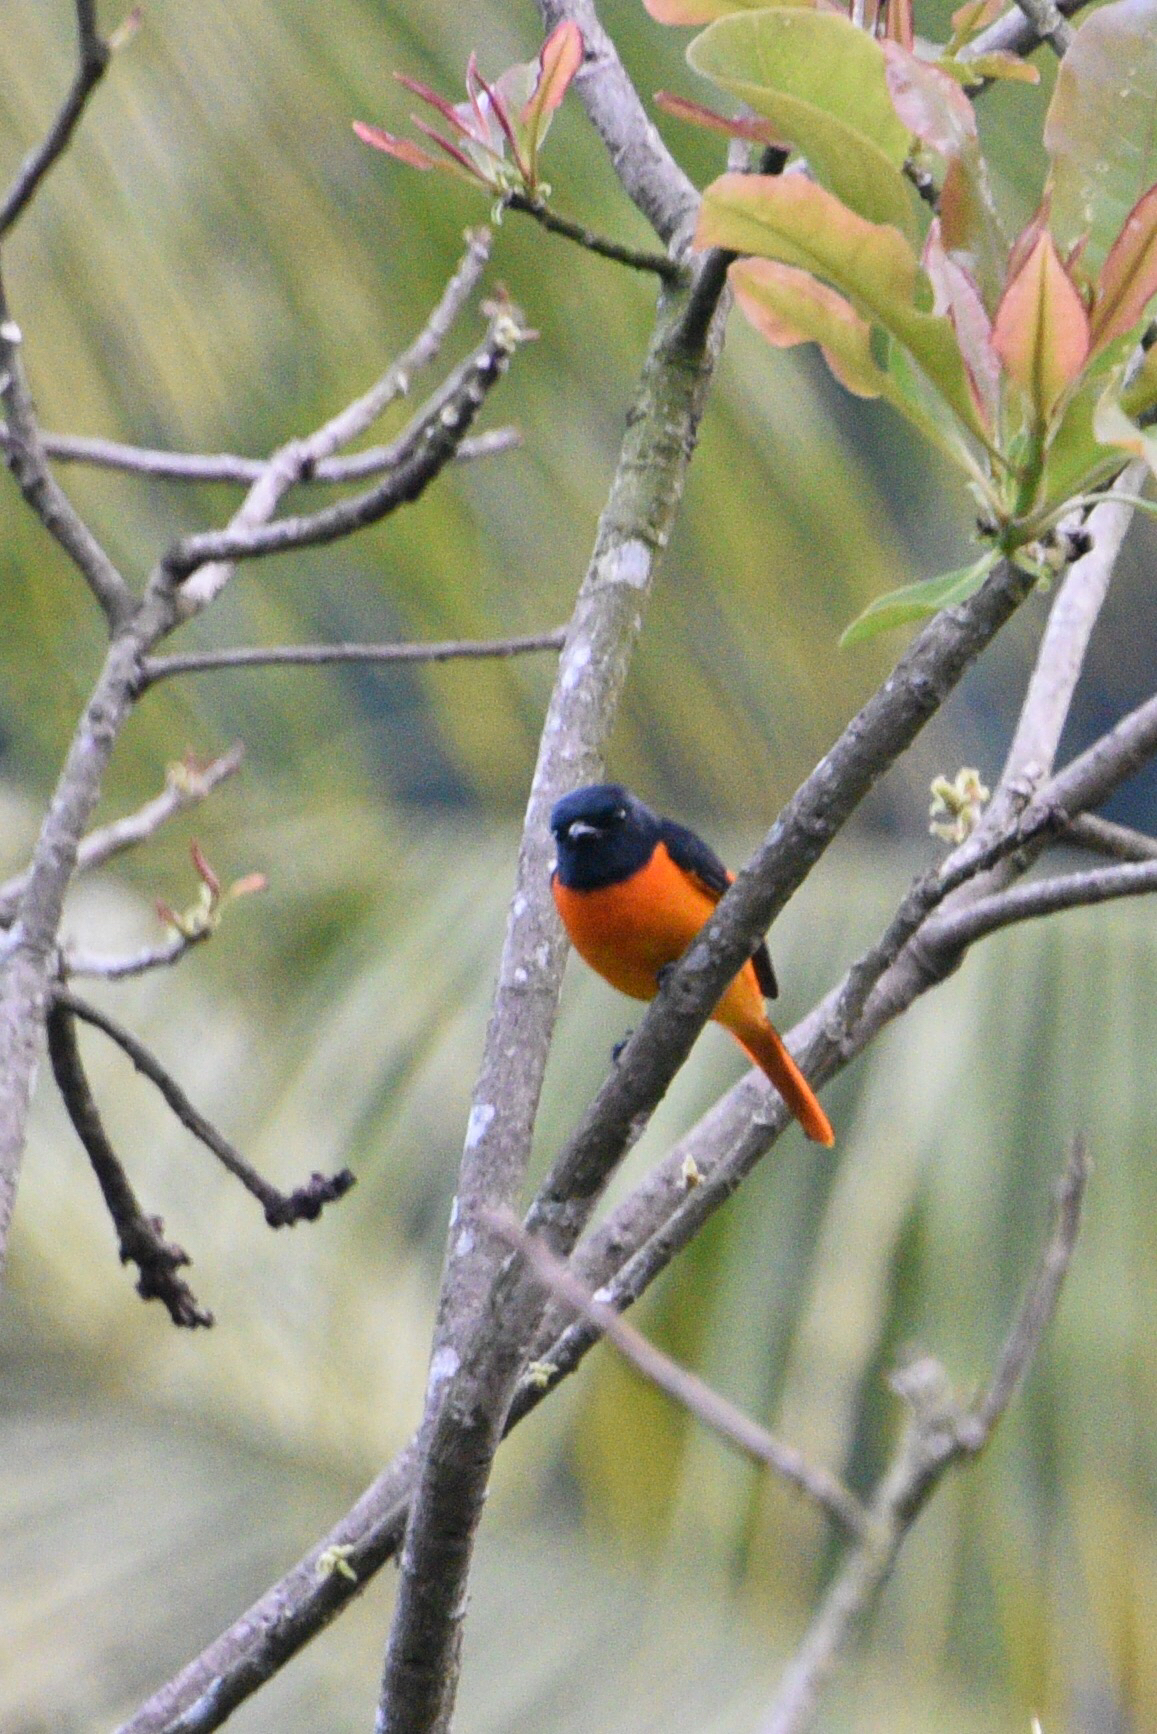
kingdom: Animalia
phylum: Chordata
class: Aves
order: Passeriformes
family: Campephagidae
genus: Pericrocotus
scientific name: Pericrocotus flammeus
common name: Orange minivet
